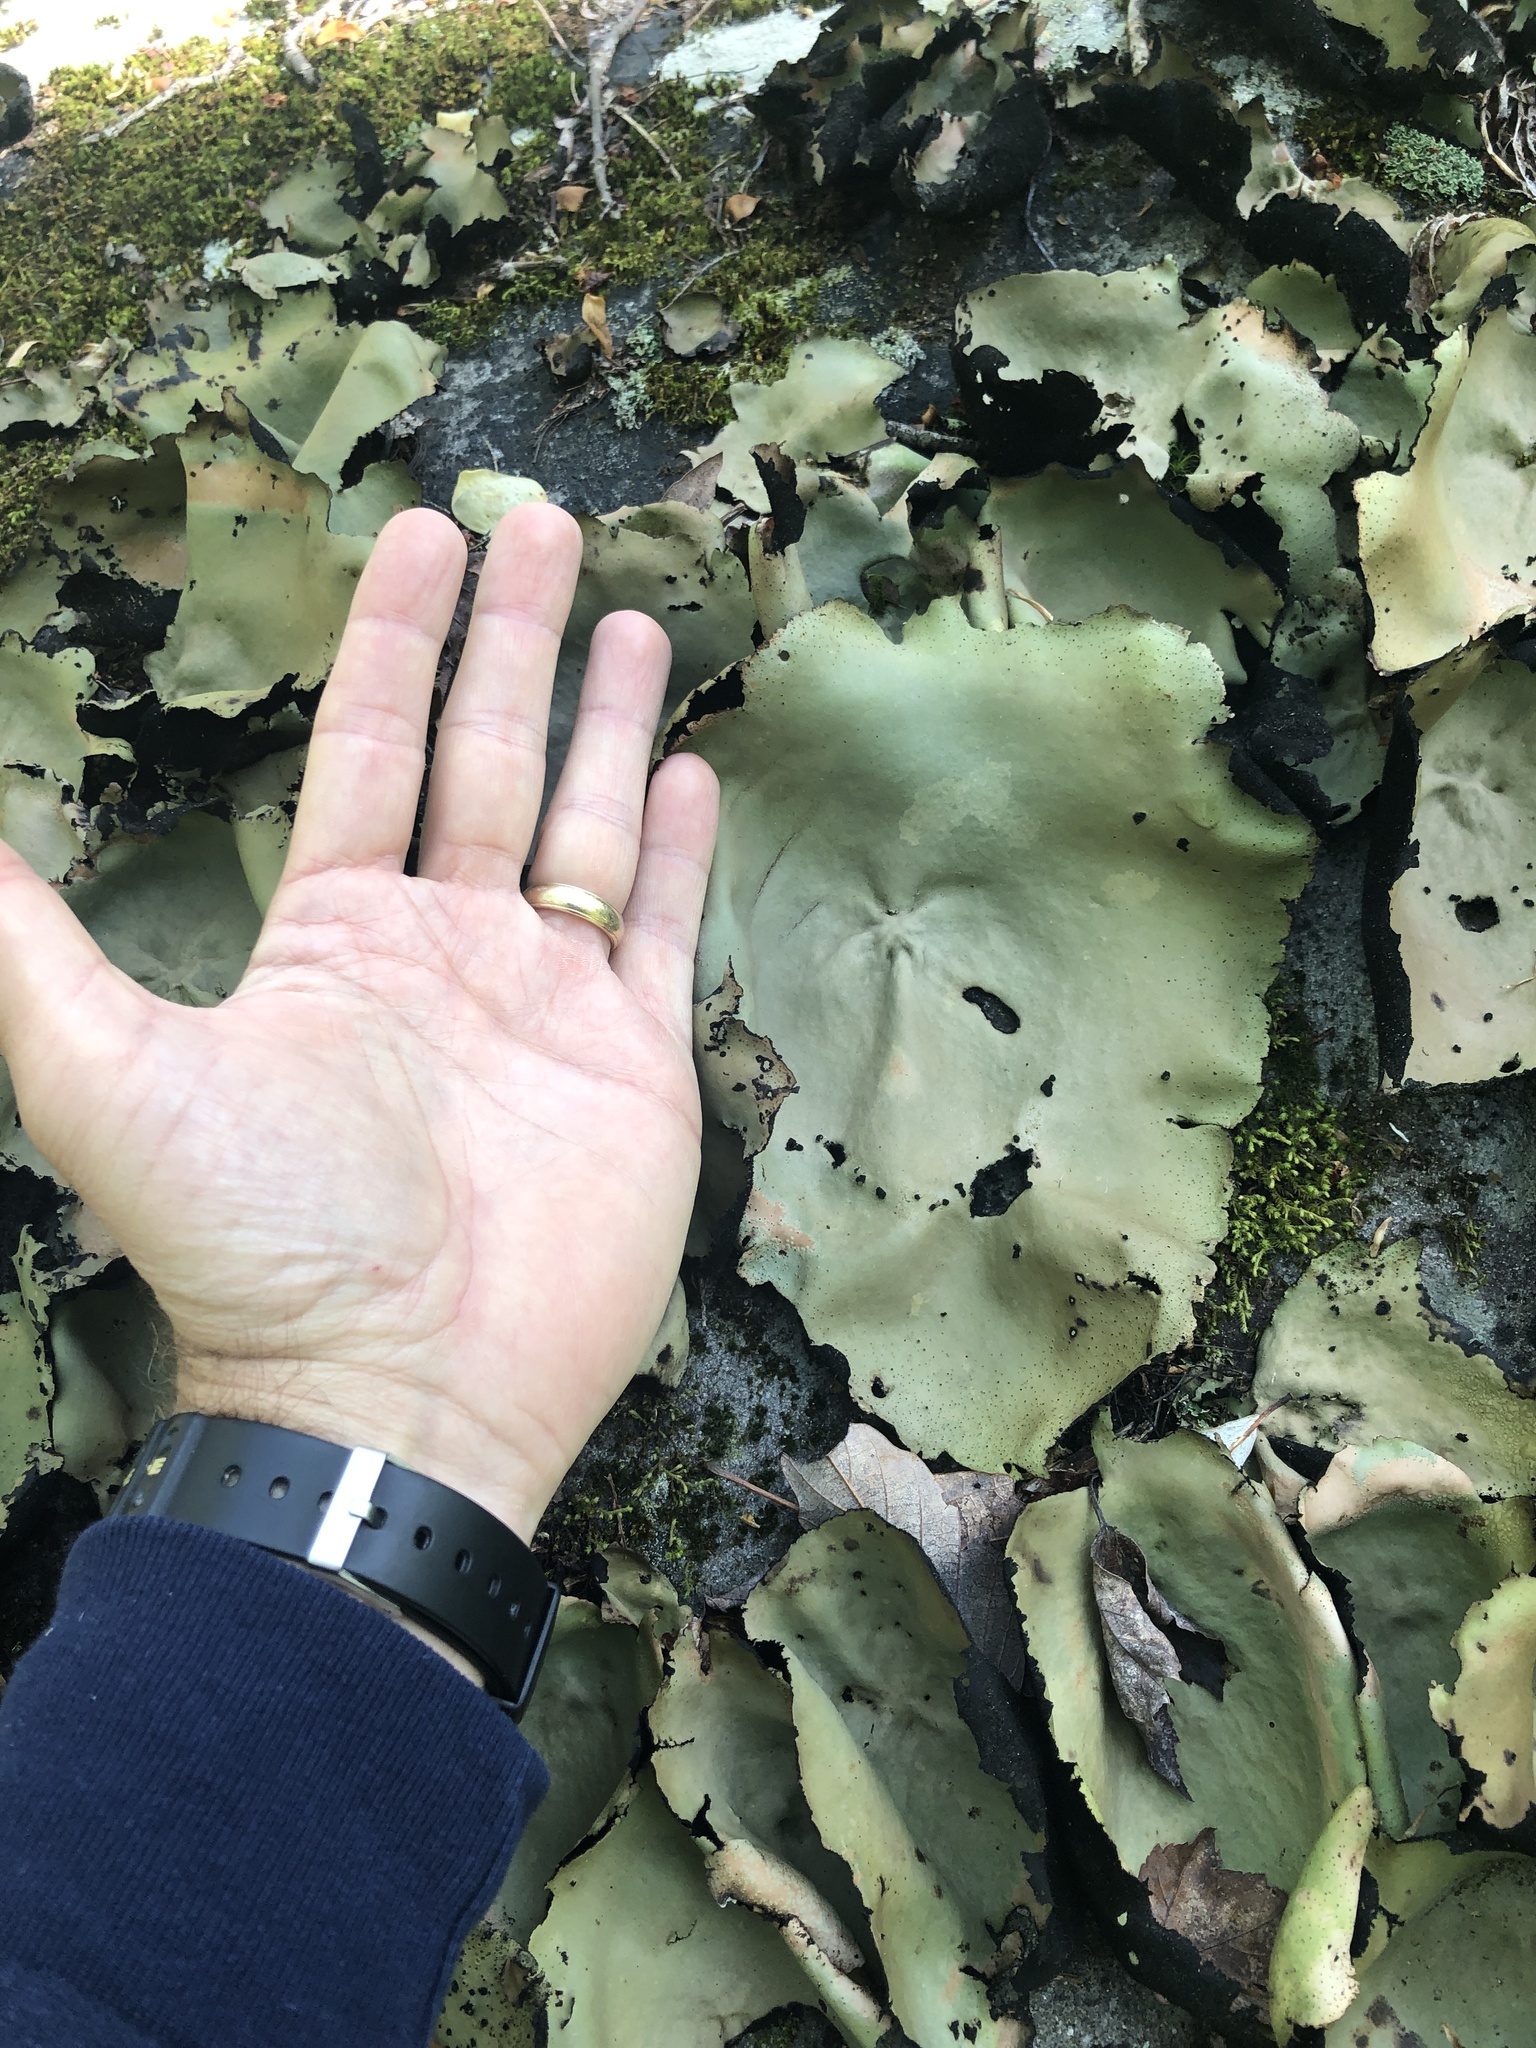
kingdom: Fungi
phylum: Ascomycota
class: Lecanoromycetes
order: Umbilicariales
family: Umbilicariaceae
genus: Umbilicaria
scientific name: Umbilicaria mammulata
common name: Smooth rock tripe
